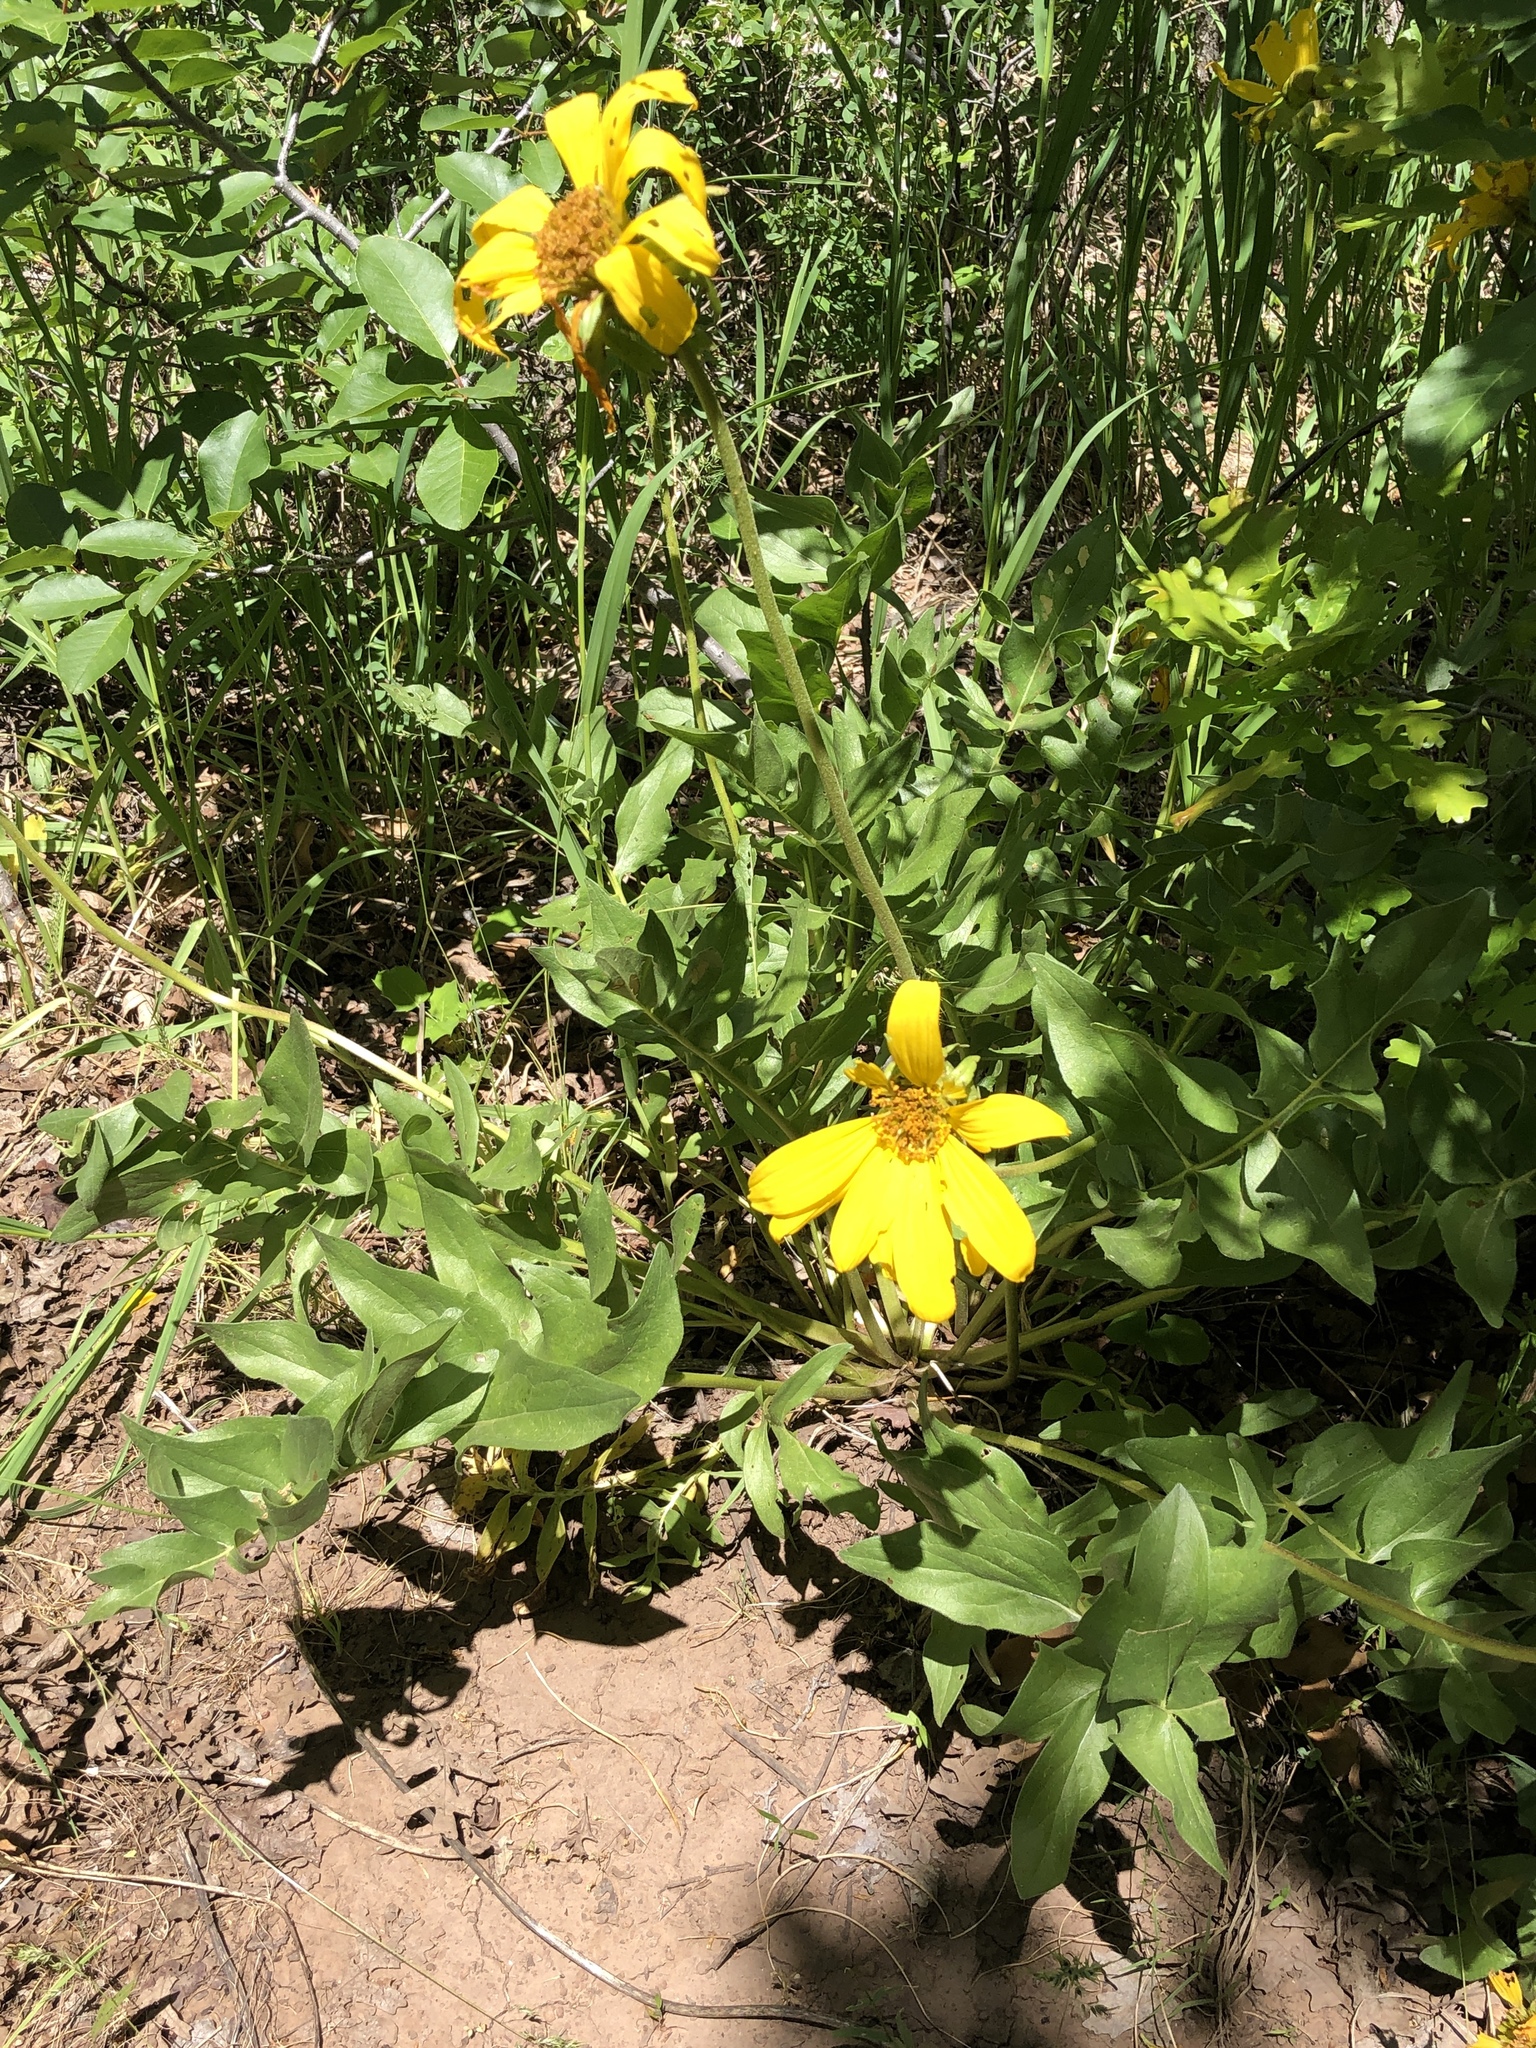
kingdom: Plantae
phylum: Tracheophyta
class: Magnoliopsida
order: Asterales
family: Asteraceae
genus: Balsamorhiza
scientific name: Balsamorhiza macrophylla
